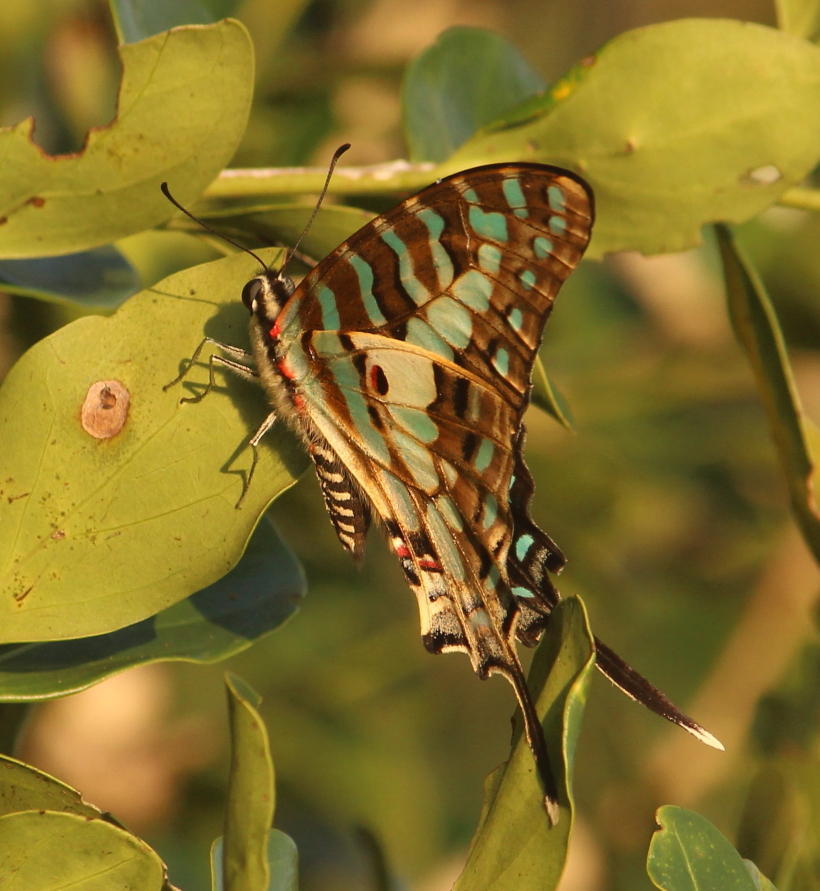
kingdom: Animalia
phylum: Arthropoda
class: Insecta
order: Lepidoptera
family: Papilionidae
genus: Graphium
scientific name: Graphium antheus
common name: Large striped swordtail
